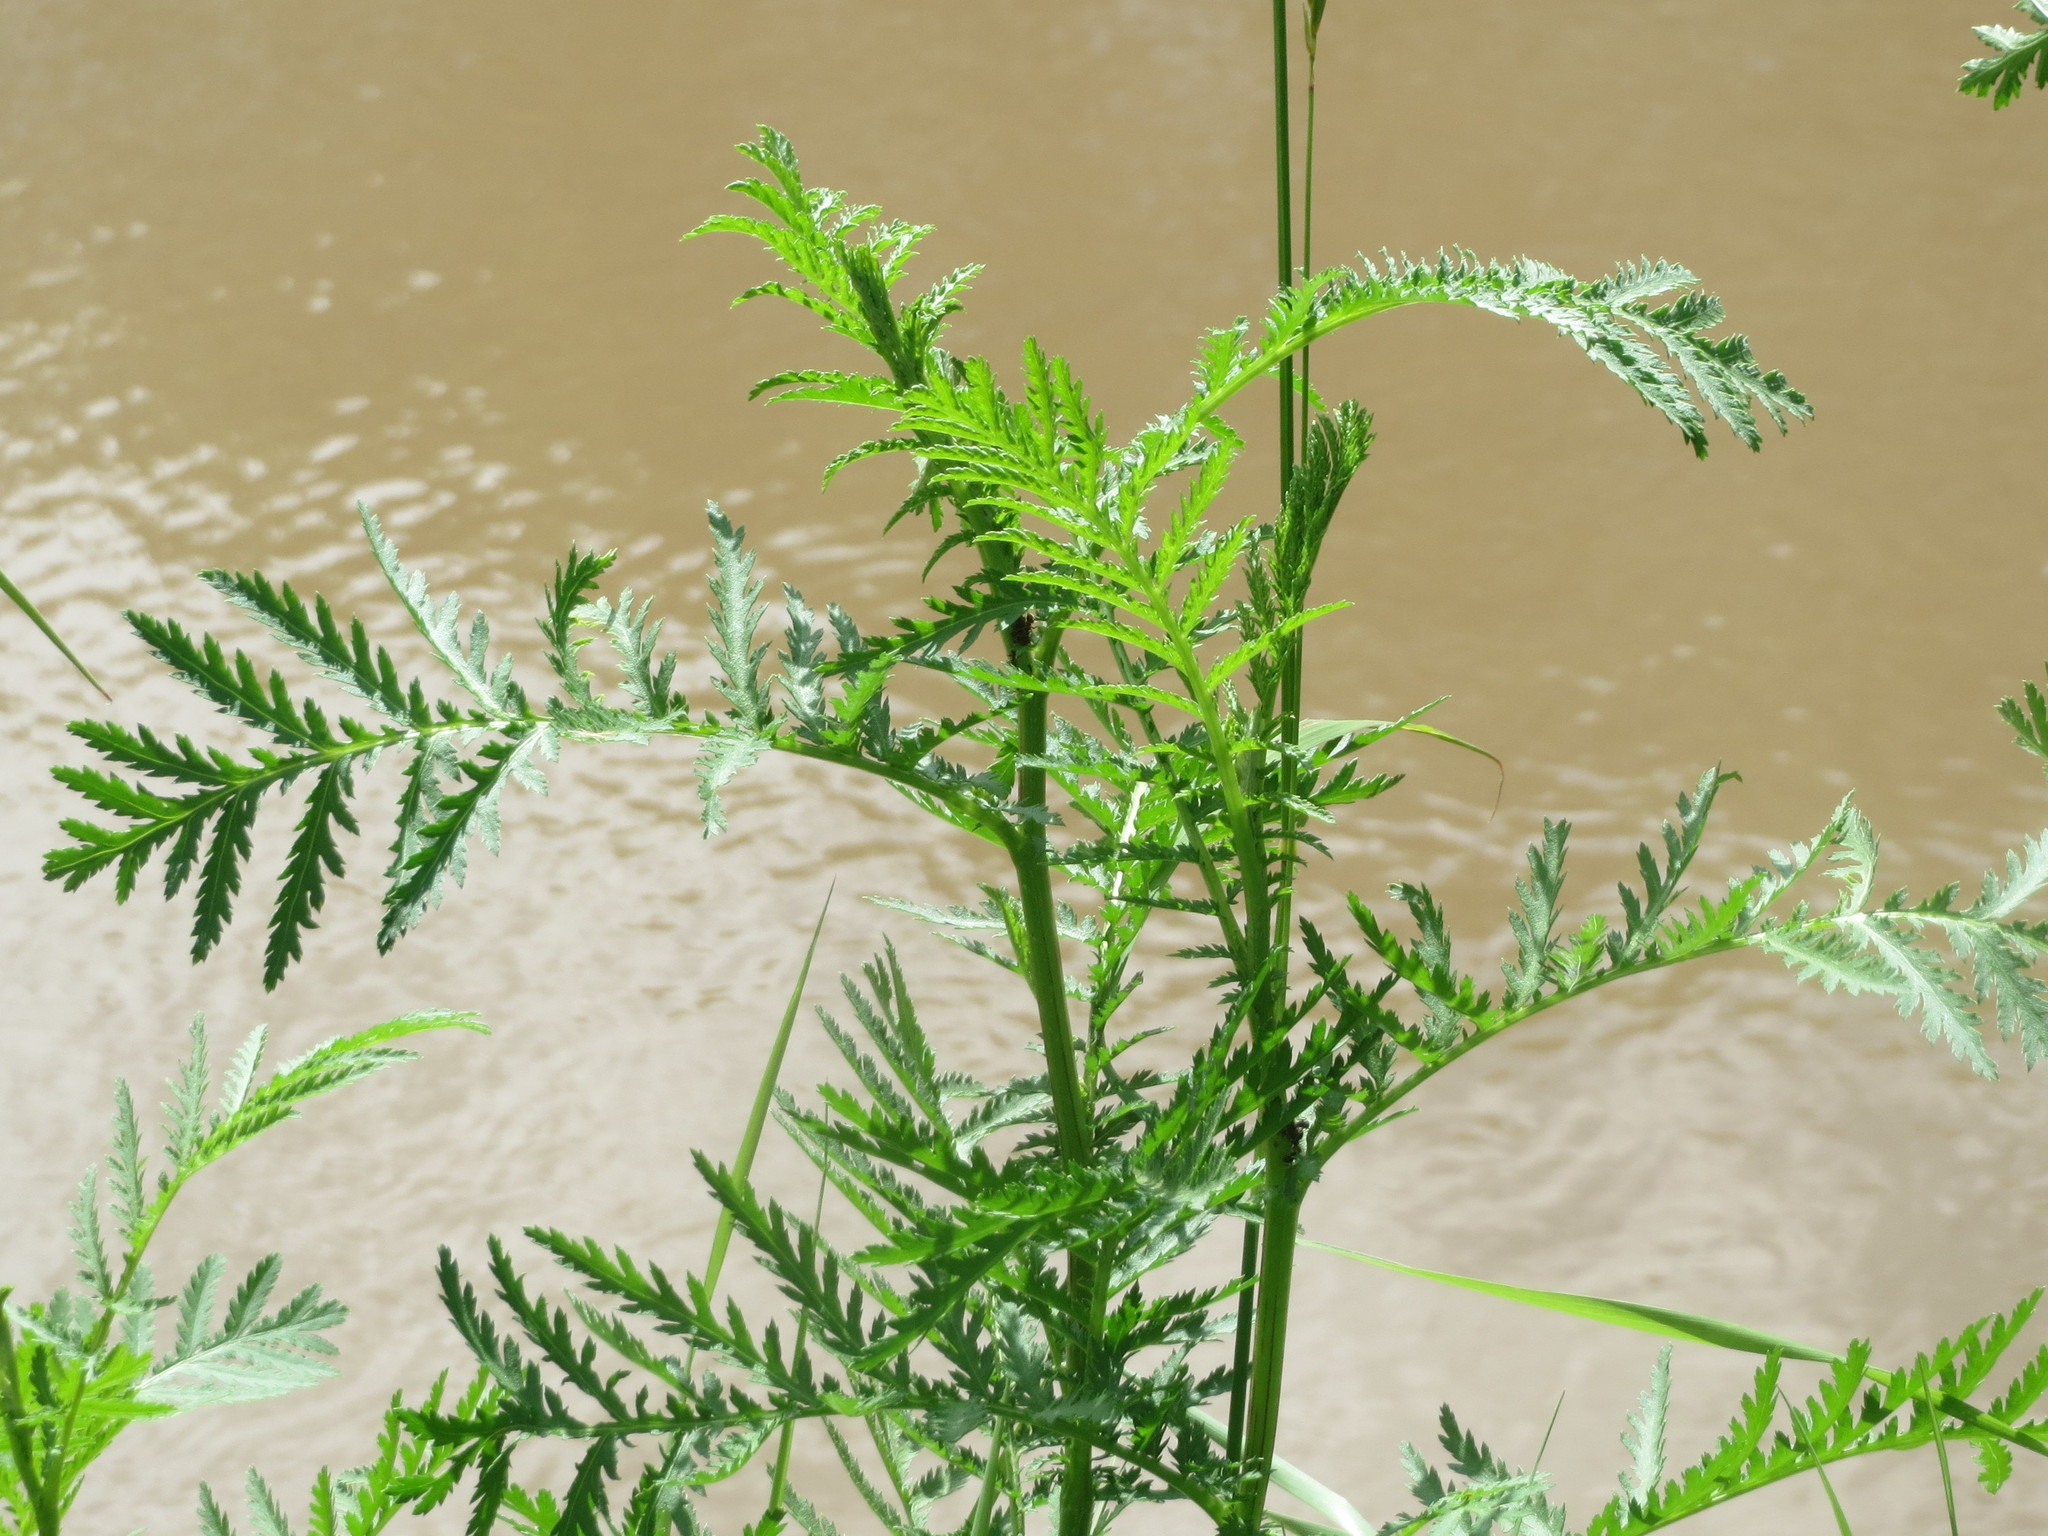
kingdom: Plantae
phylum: Tracheophyta
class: Magnoliopsida
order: Asterales
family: Asteraceae
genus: Tanacetum
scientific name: Tanacetum vulgare
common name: Common tansy
